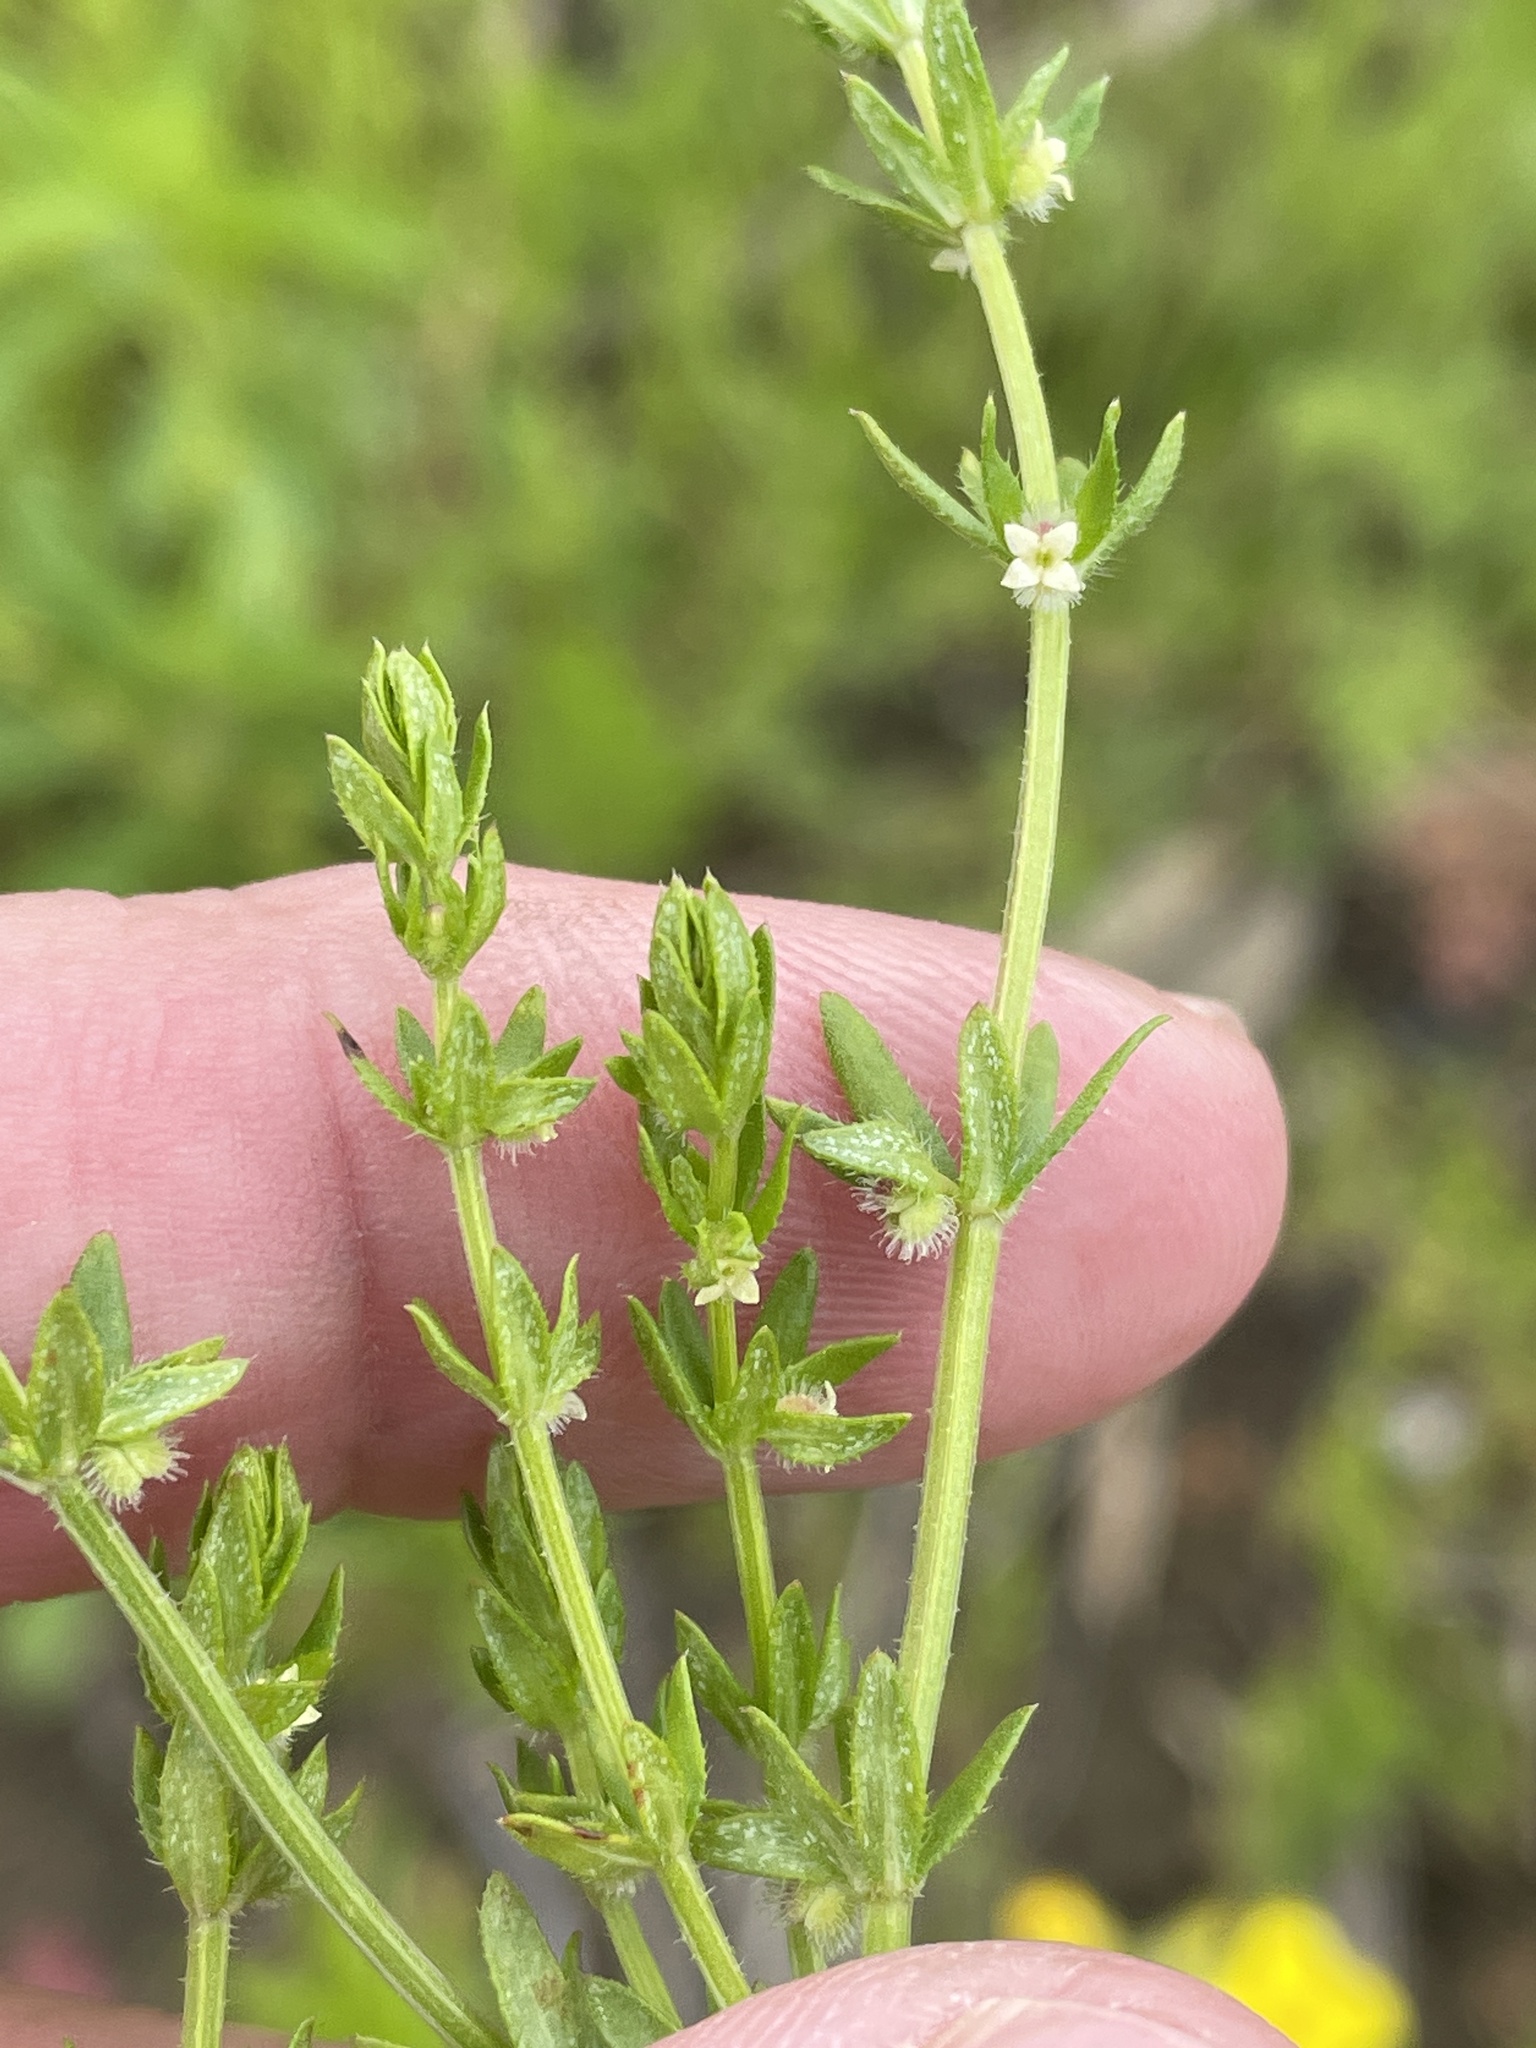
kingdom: Plantae
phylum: Tracheophyta
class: Magnoliopsida
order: Gentianales
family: Rubiaceae
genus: Galium
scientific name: Galium virgatum
